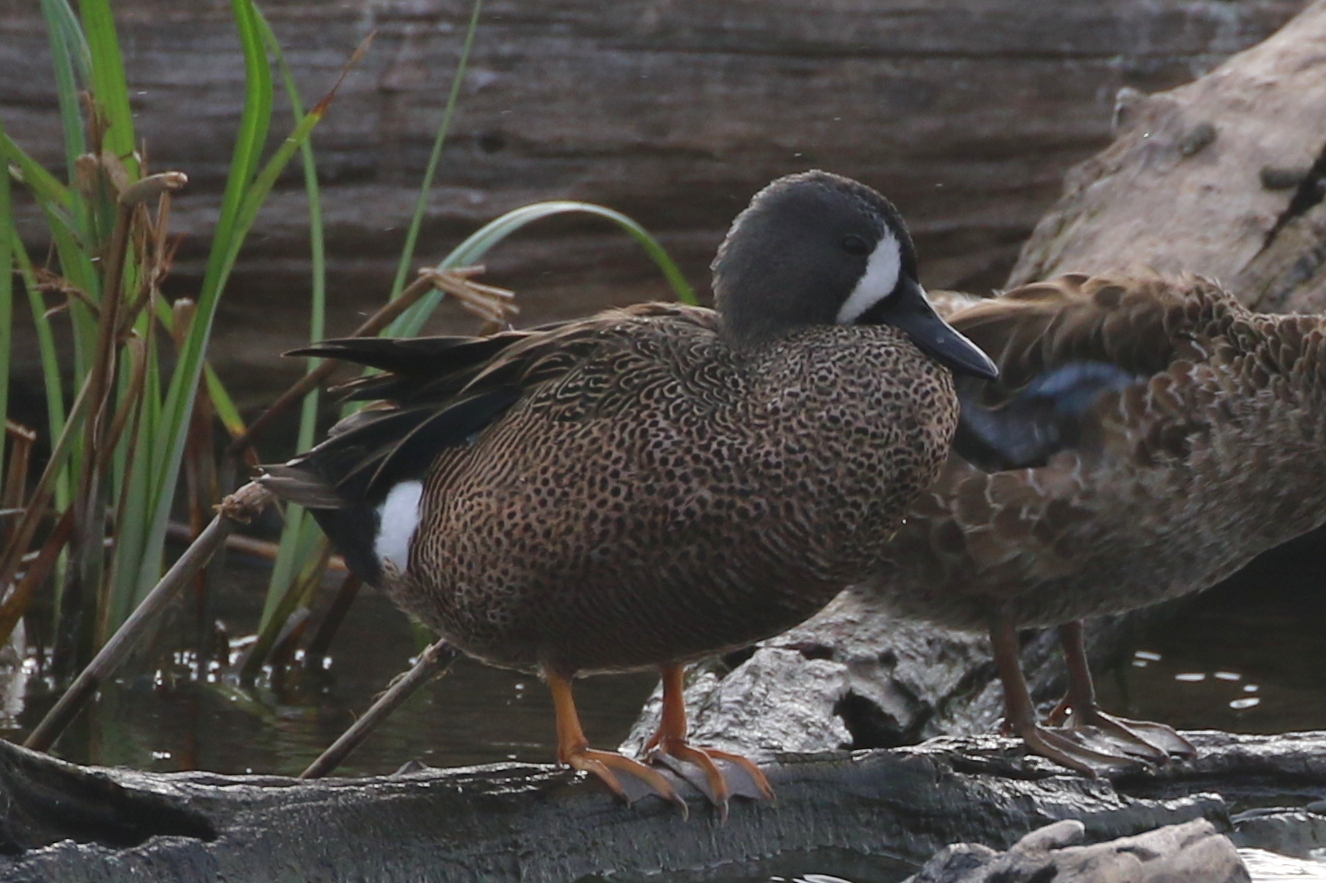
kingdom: Animalia
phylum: Chordata
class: Aves
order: Anseriformes
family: Anatidae
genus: Spatula
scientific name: Spatula discors
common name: Blue-winged teal
